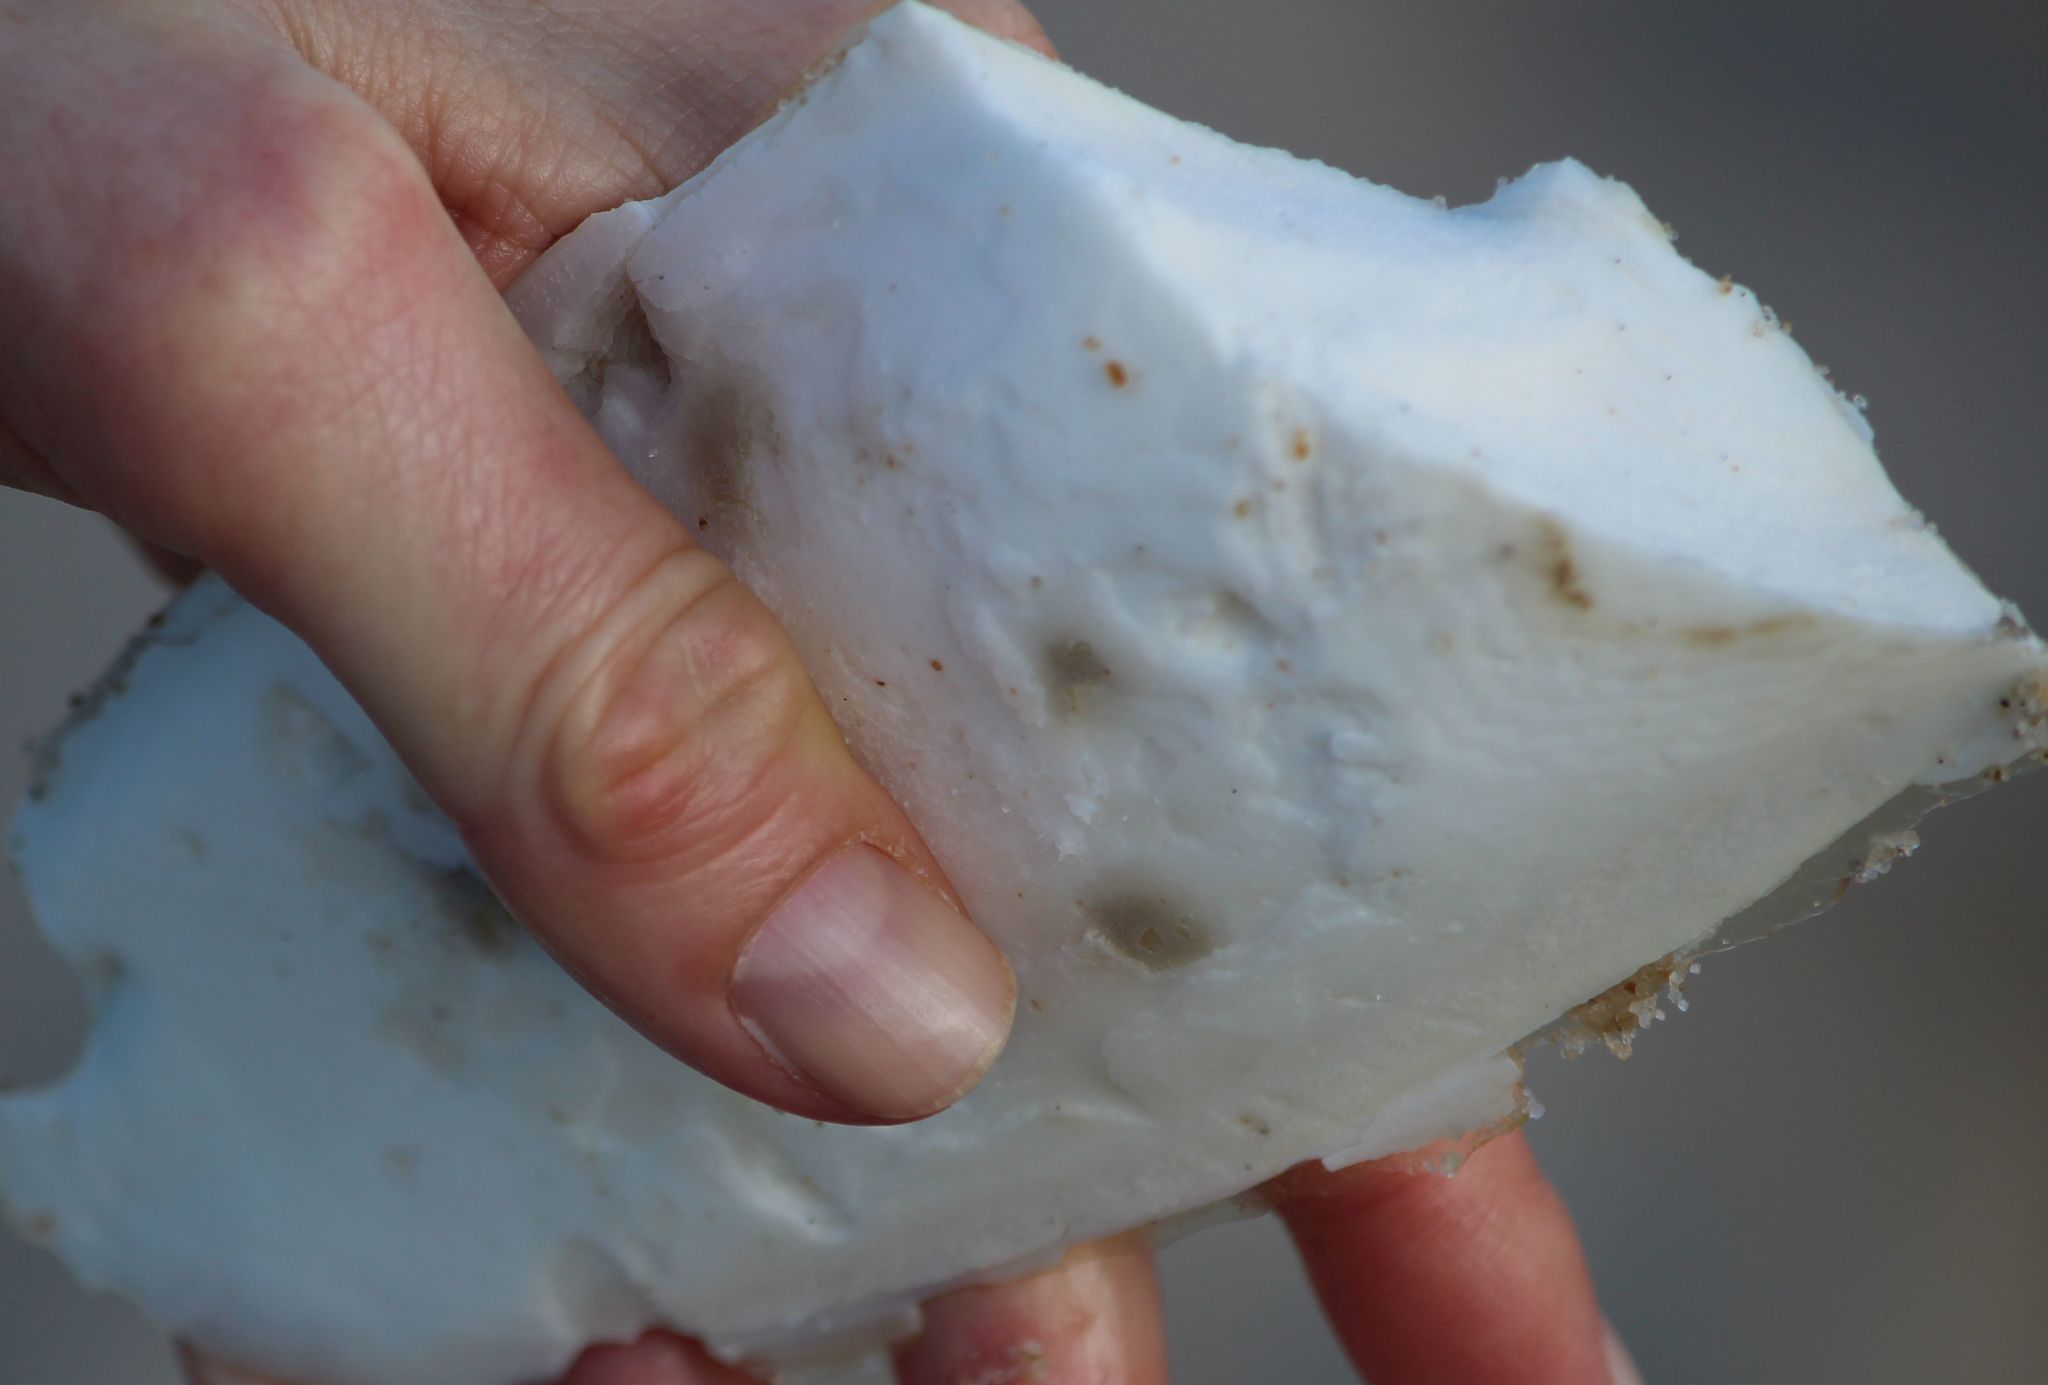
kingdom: Animalia
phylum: Mollusca
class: Cephalopoda
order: Sepiida
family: Sepiidae
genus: Sepia
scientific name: Sepia officinalis
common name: Common cuttlefish
